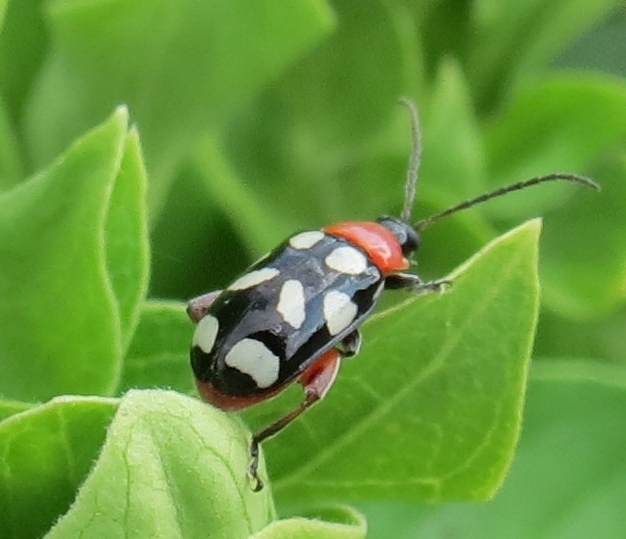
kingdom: Animalia
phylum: Arthropoda
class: Insecta
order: Coleoptera
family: Chrysomelidae
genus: Omophoita
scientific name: Omophoita cyanipennis
